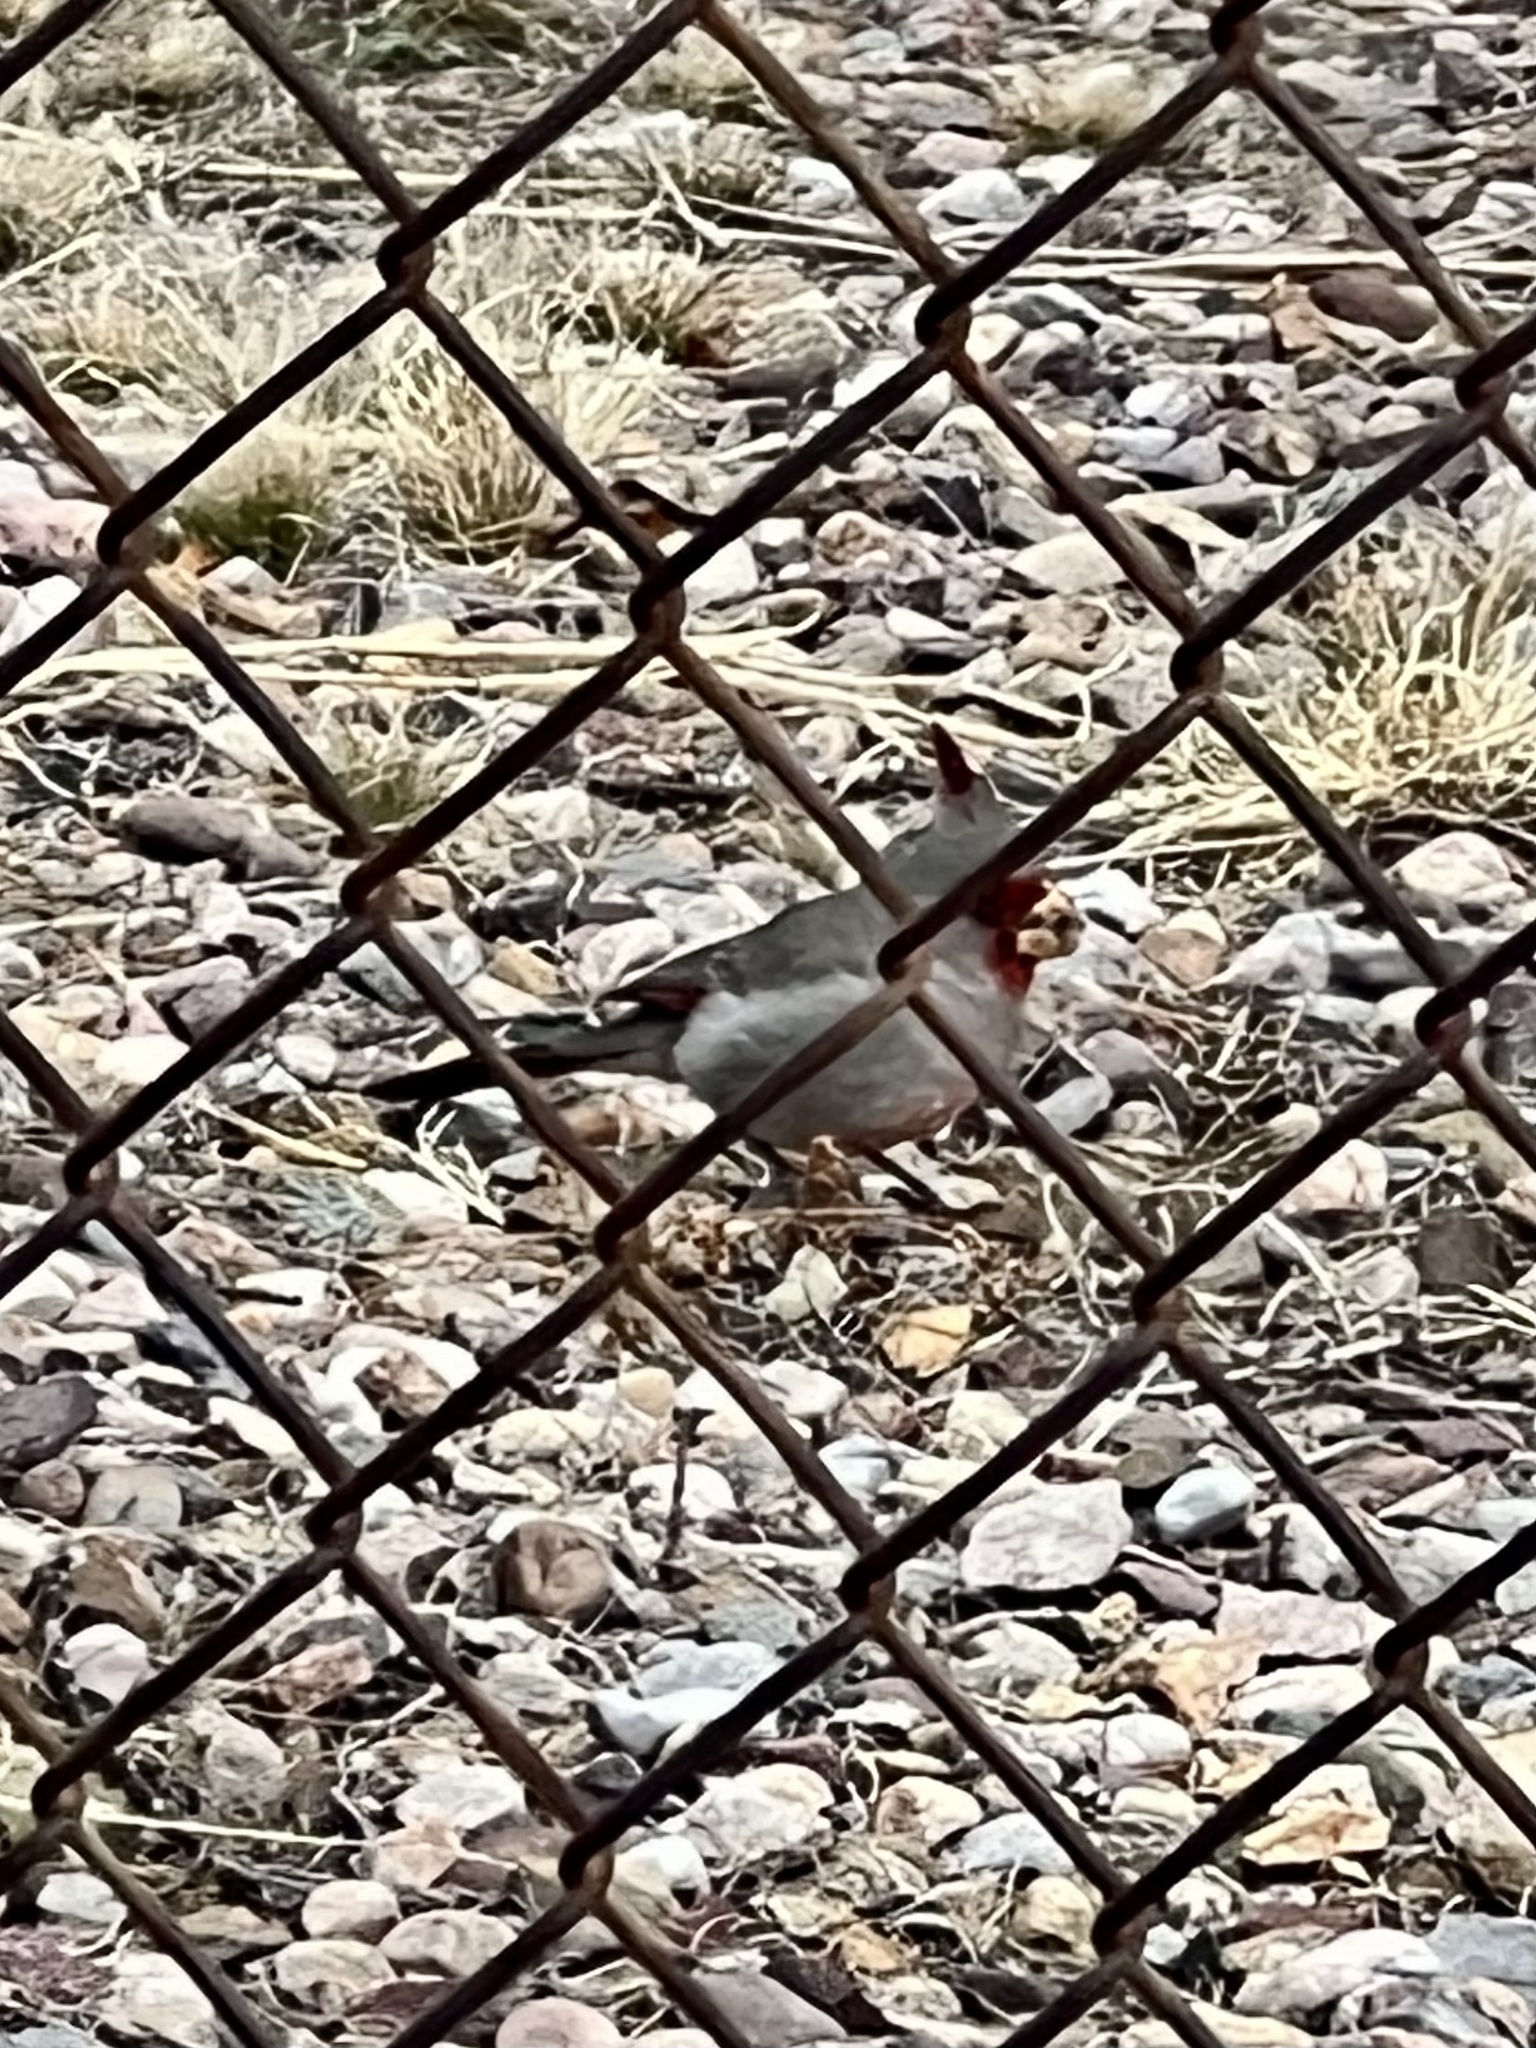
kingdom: Animalia
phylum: Chordata
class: Aves
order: Passeriformes
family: Cardinalidae
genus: Cardinalis
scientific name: Cardinalis sinuatus
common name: Pyrrhuloxia
